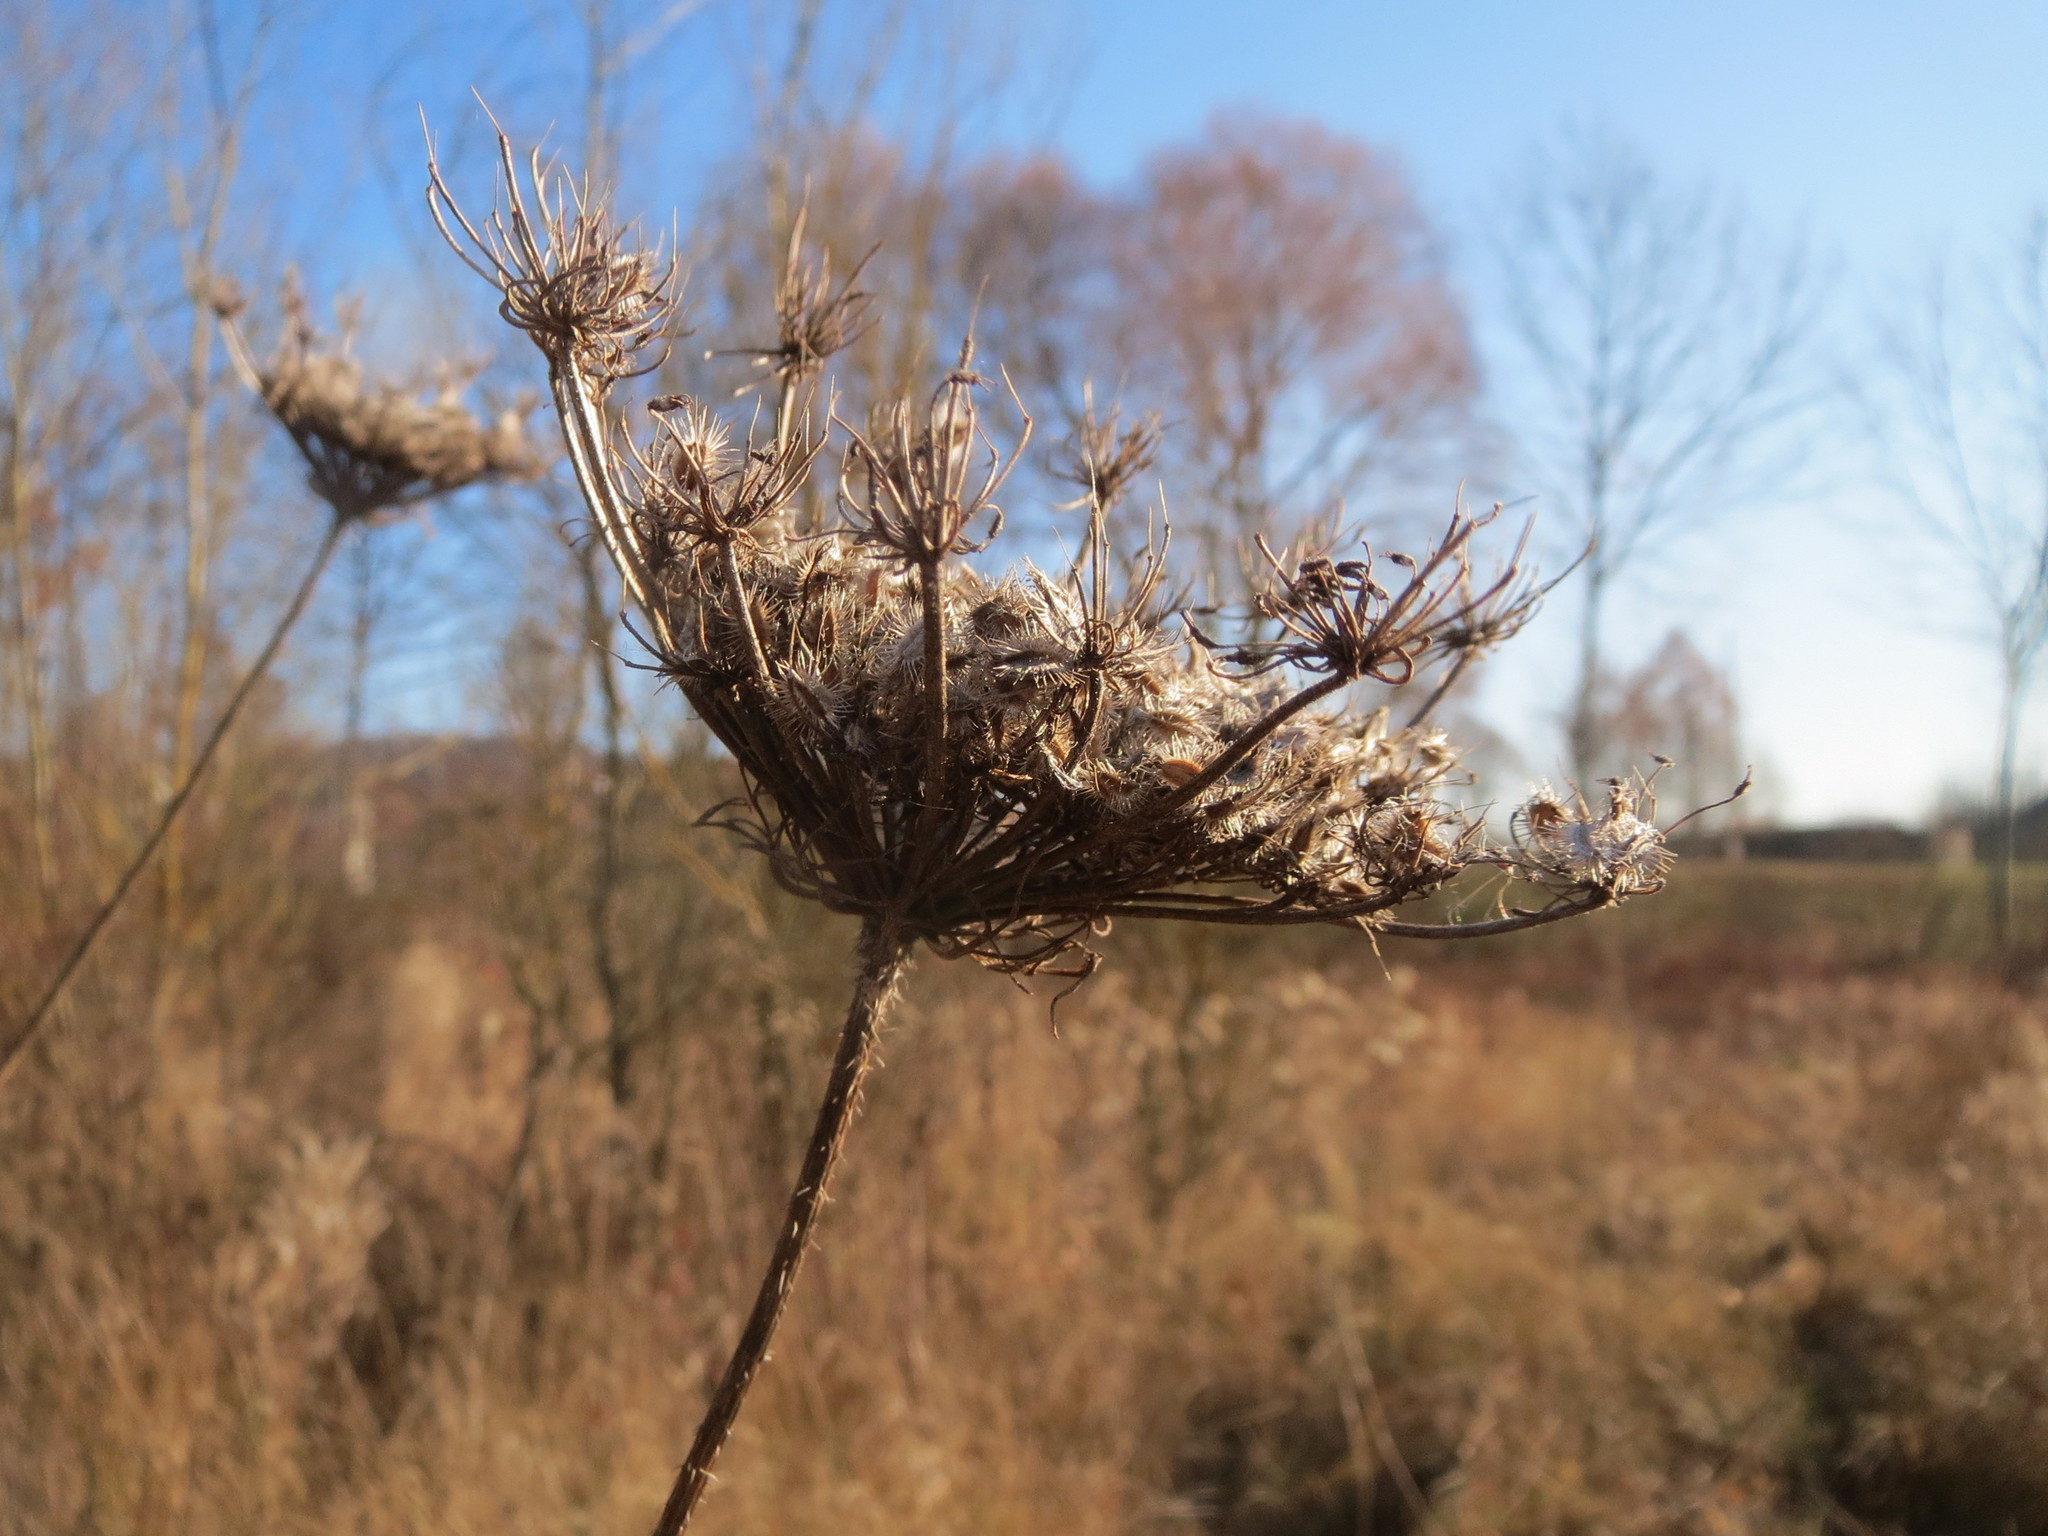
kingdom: Plantae
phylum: Tracheophyta
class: Magnoliopsida
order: Apiales
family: Apiaceae
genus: Daucus
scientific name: Daucus carota
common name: Wild carrot
